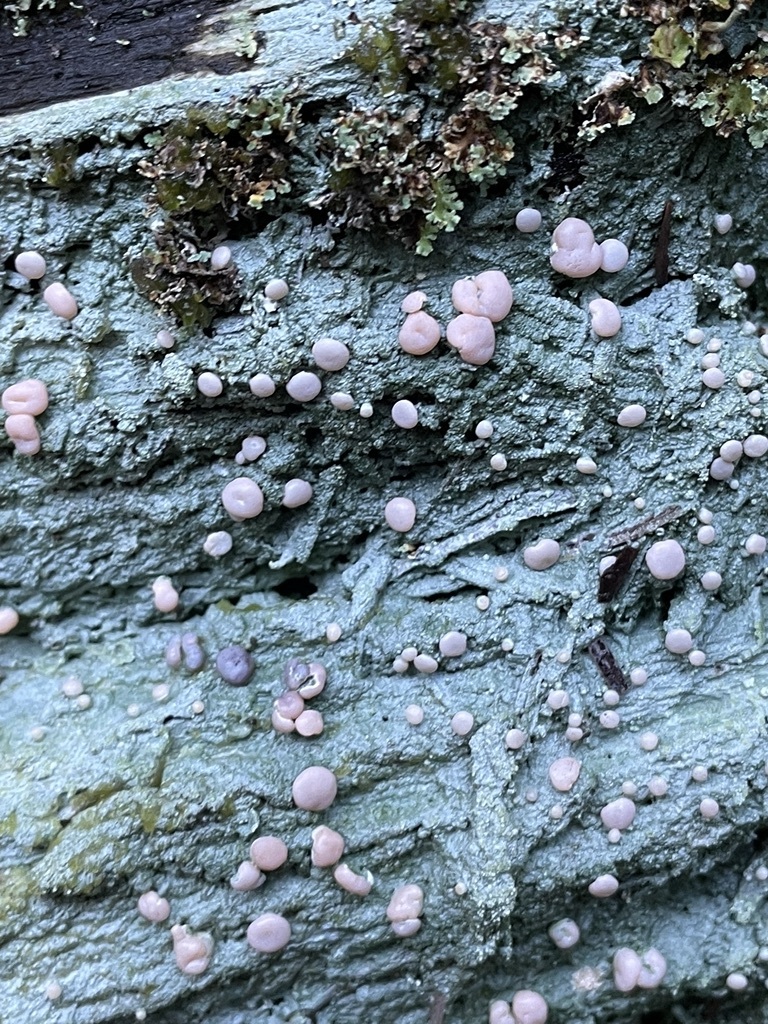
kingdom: Fungi
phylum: Ascomycota
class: Lecanoromycetes
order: Pertusariales
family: Icmadophilaceae
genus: Icmadophila
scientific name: Icmadophila ericetorum
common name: Candy lichen
